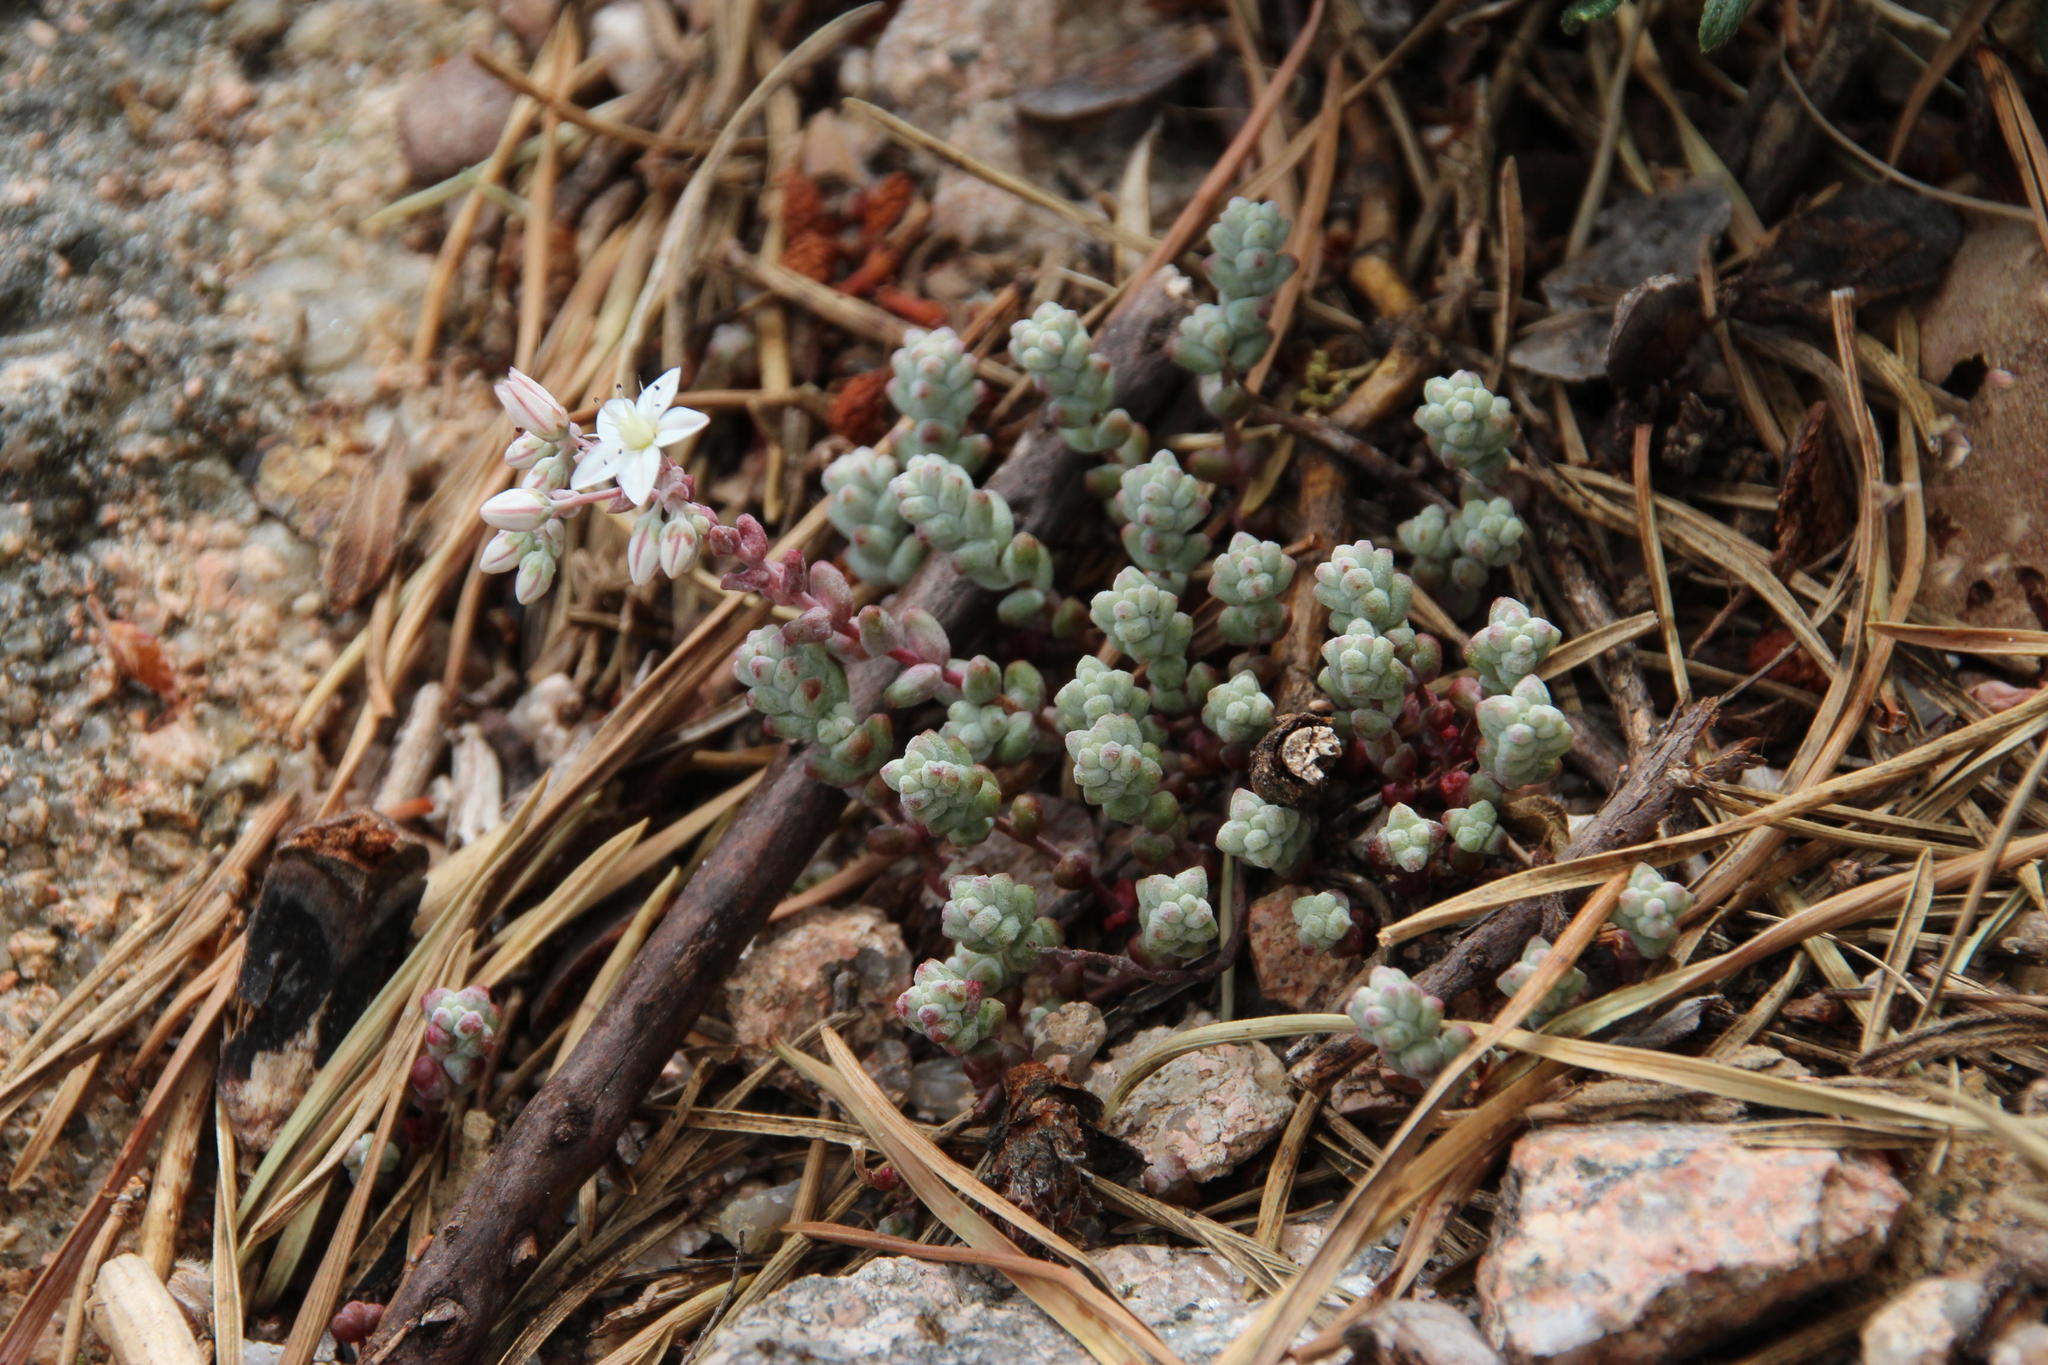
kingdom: Plantae
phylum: Tracheophyta
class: Magnoliopsida
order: Saxifragales
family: Crassulaceae
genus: Sedum
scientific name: Sedum brevifolium
